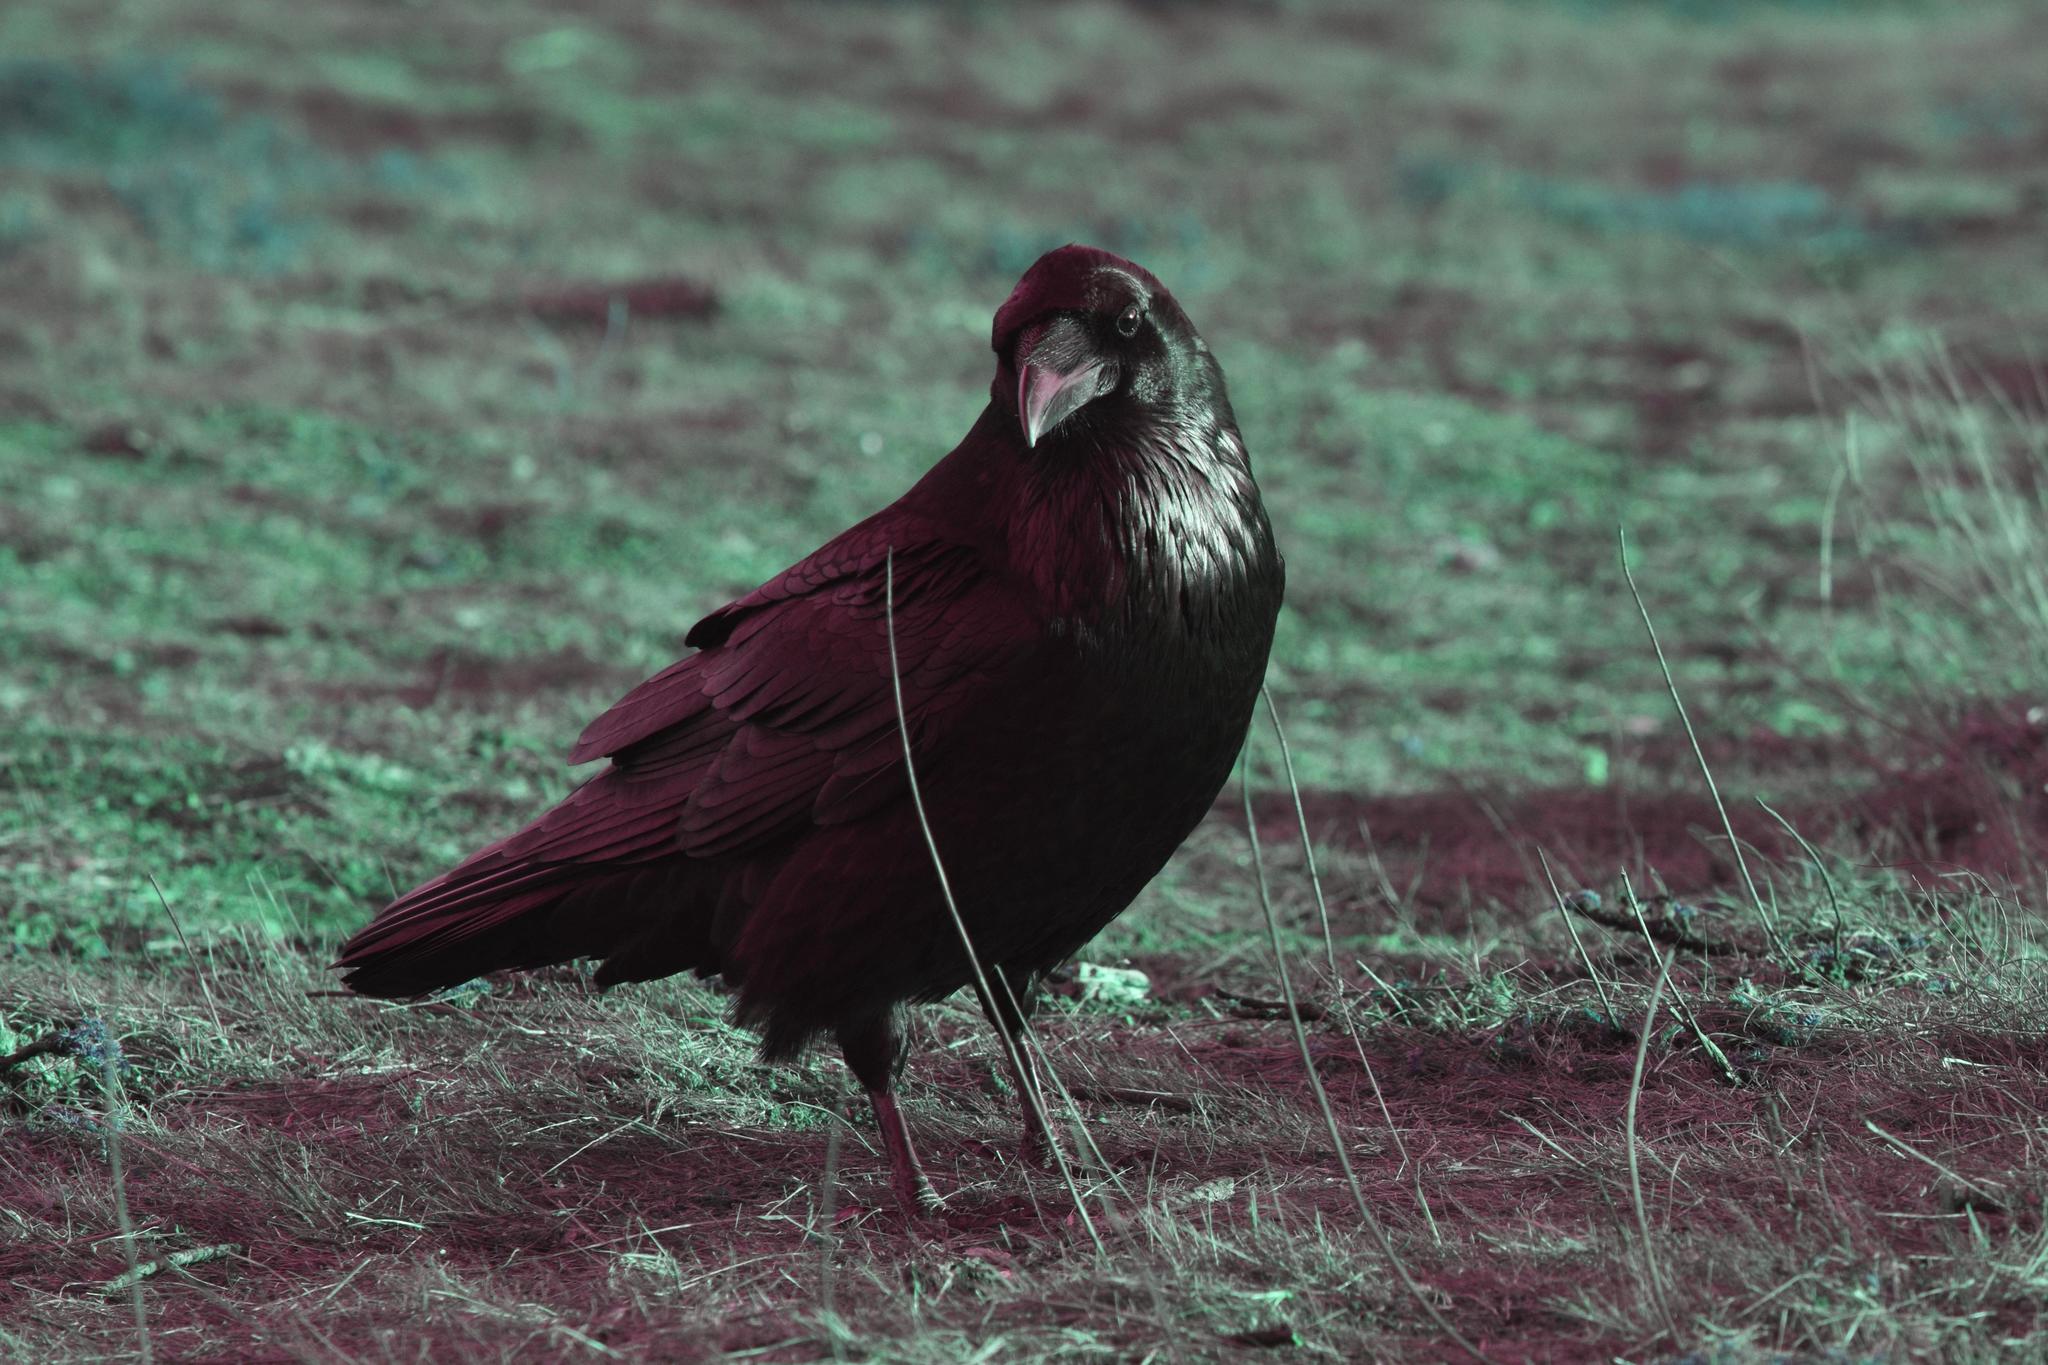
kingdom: Animalia
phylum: Chordata
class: Aves
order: Passeriformes
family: Corvidae
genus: Corvus
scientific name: Corvus corax
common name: Common raven
